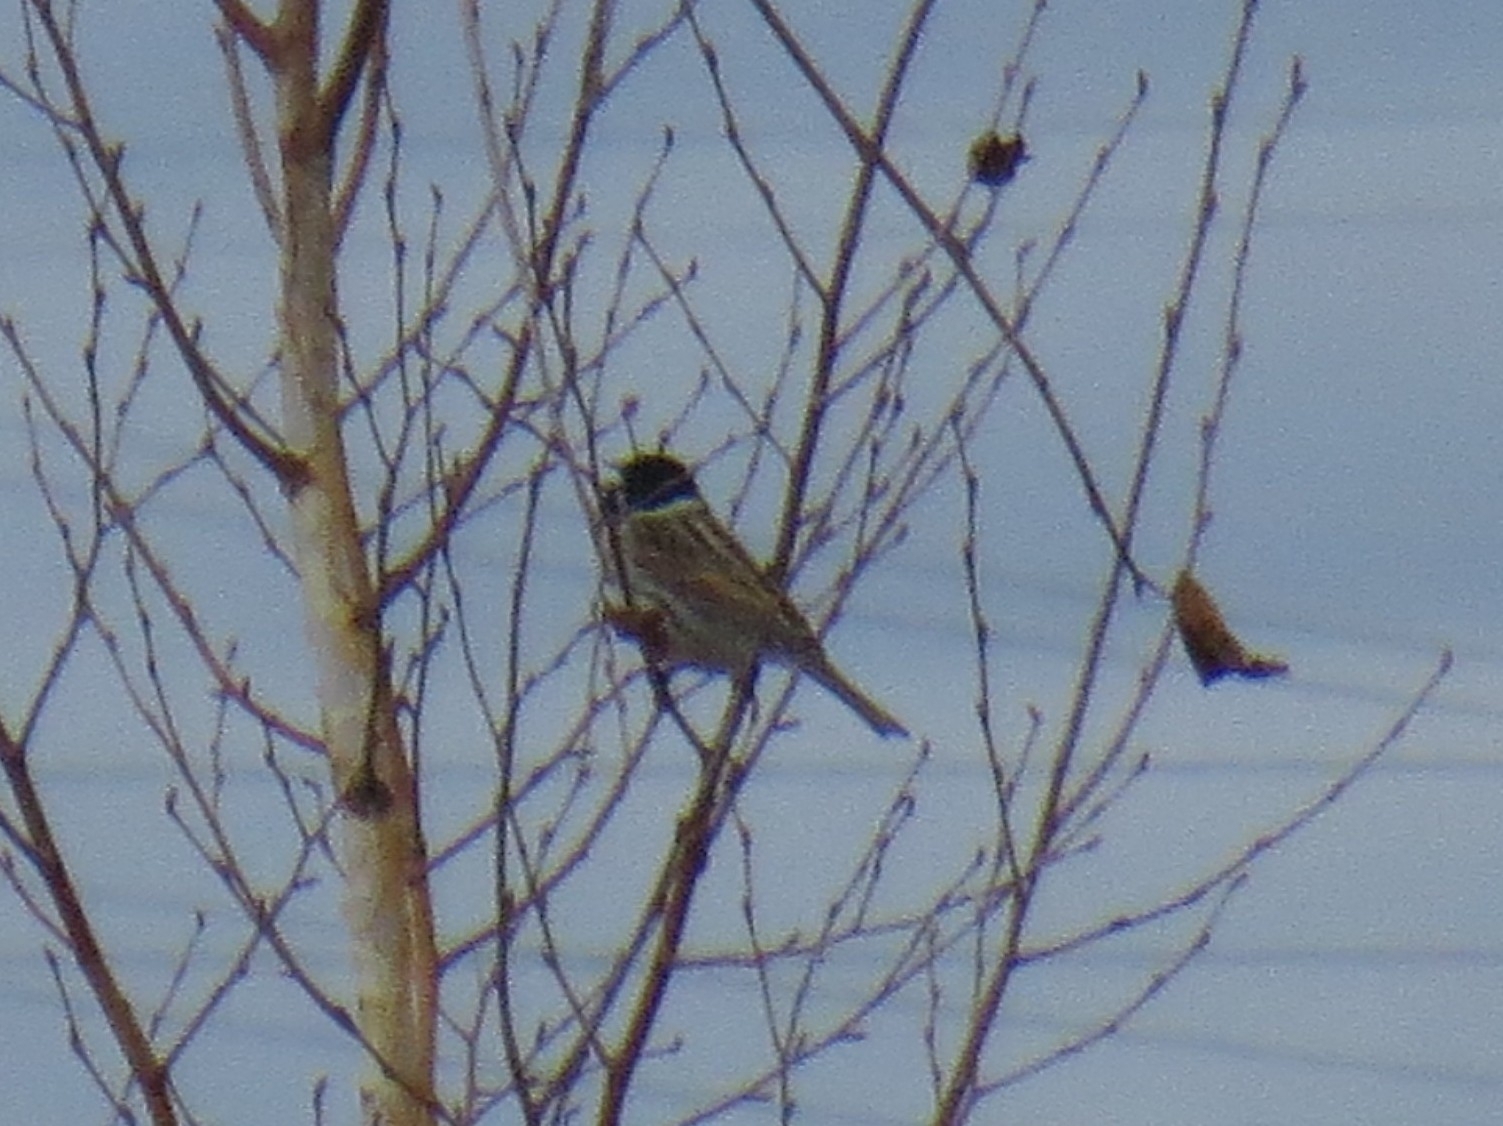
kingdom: Animalia
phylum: Chordata
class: Aves
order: Passeriformes
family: Emberizidae
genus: Emberiza
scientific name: Emberiza schoeniclus
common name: Reed bunting
